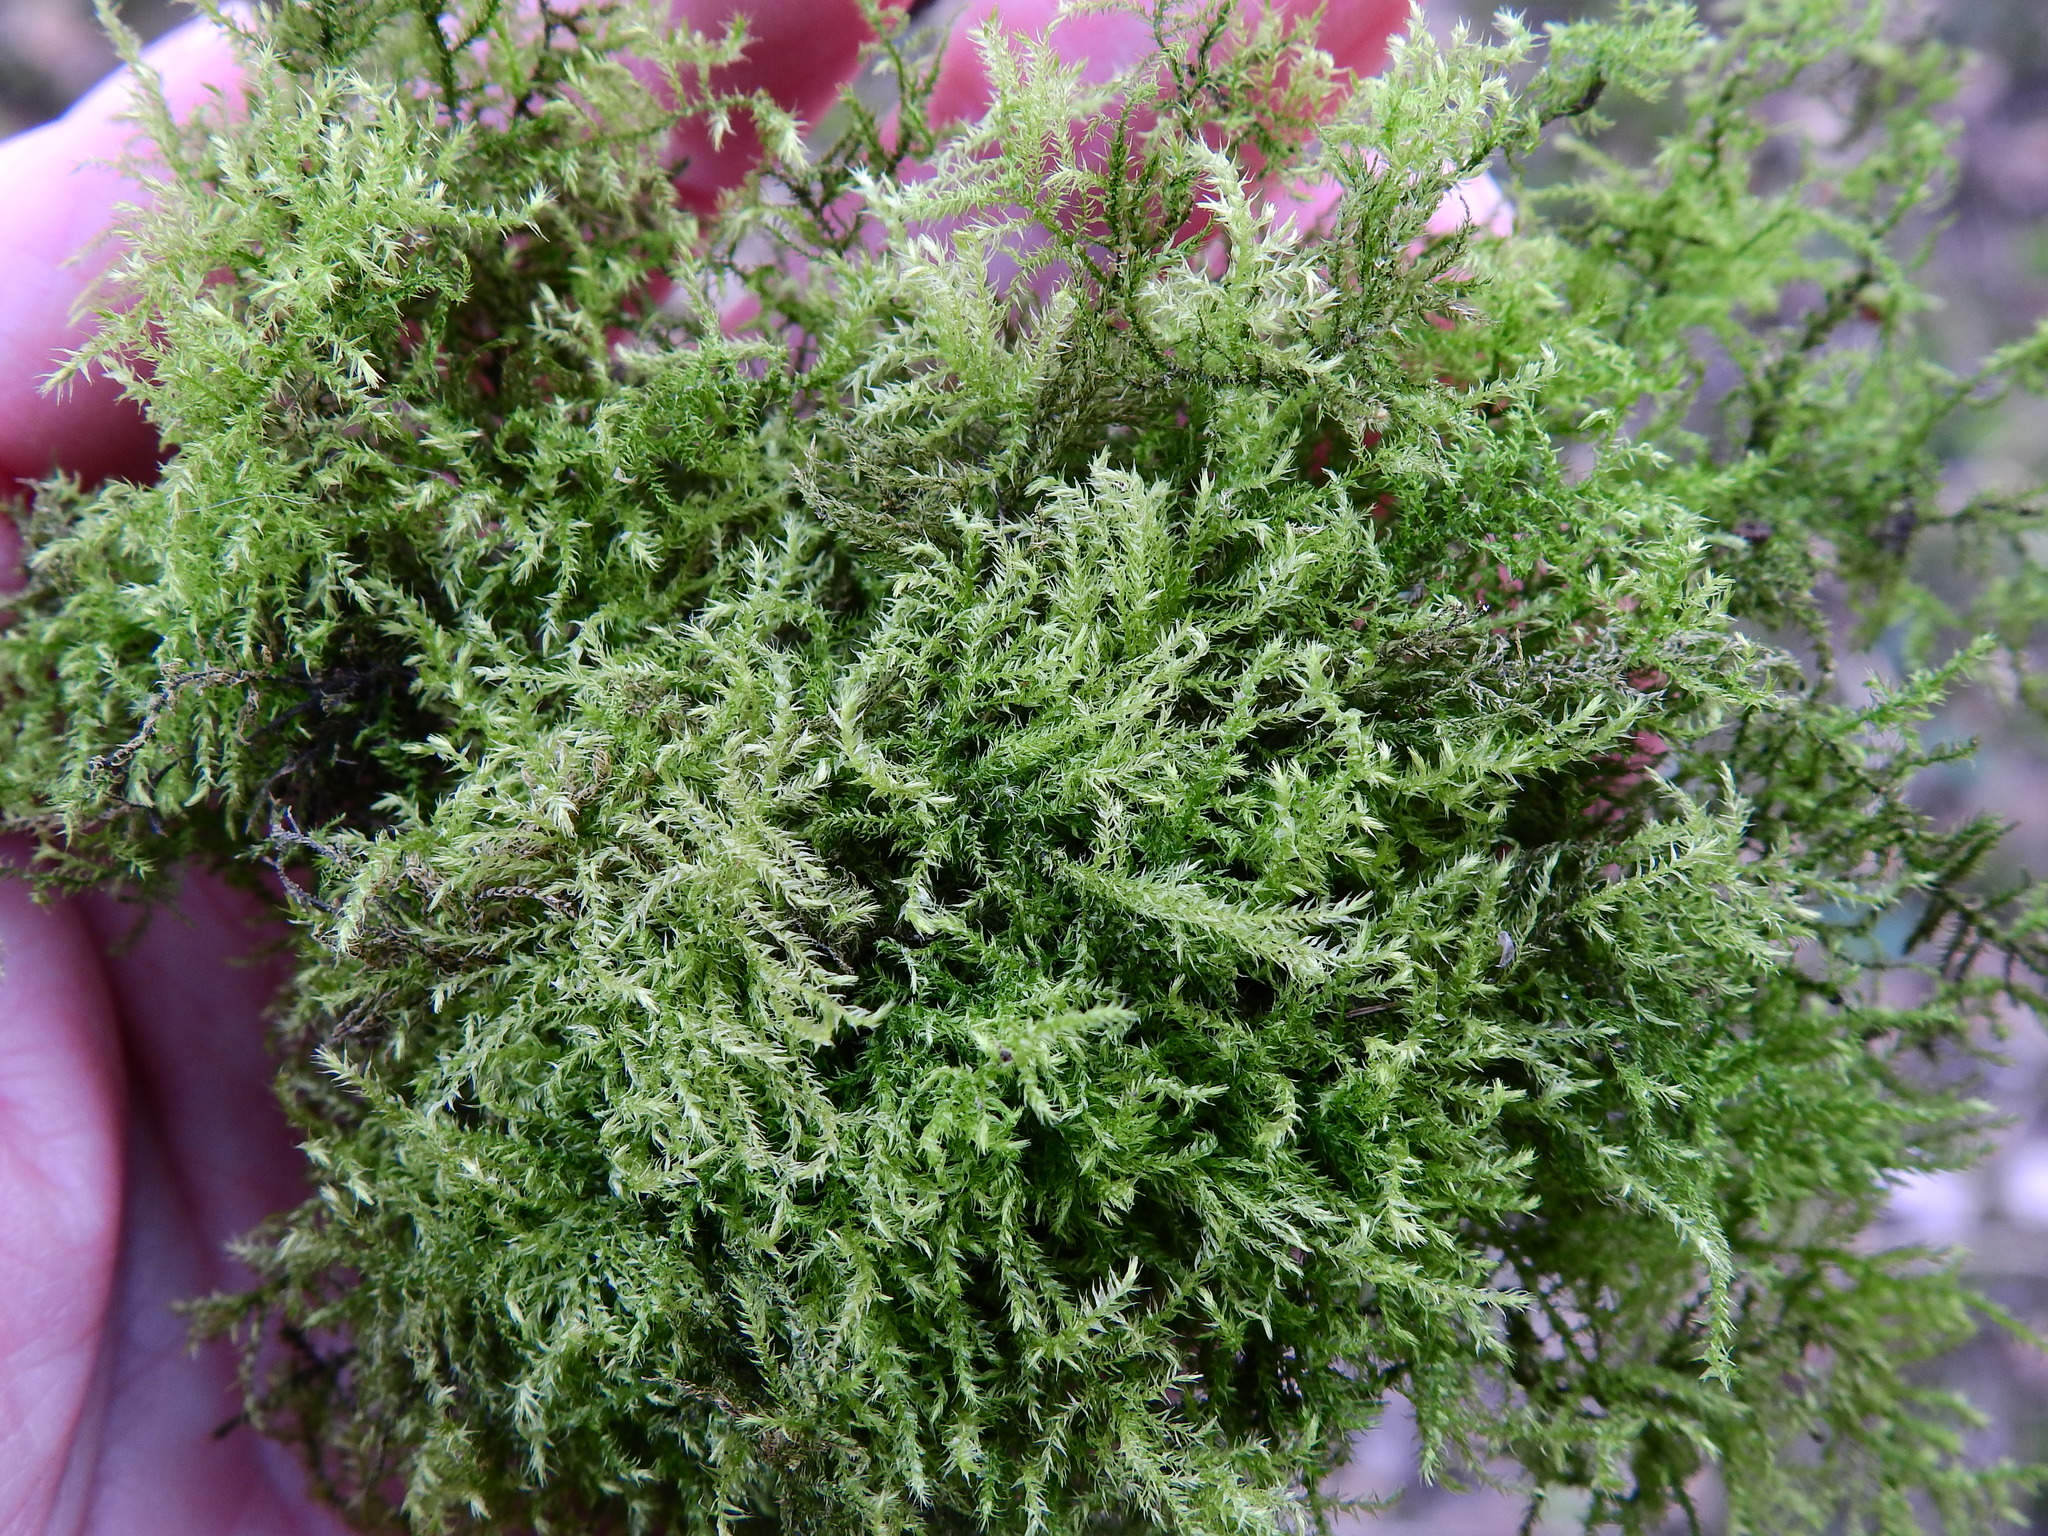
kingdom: Plantae
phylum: Bryophyta
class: Bryopsida
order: Hypnales
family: Brachytheciaceae
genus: Kindbergia
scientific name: Kindbergia praelonga
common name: Slender beaked moss
